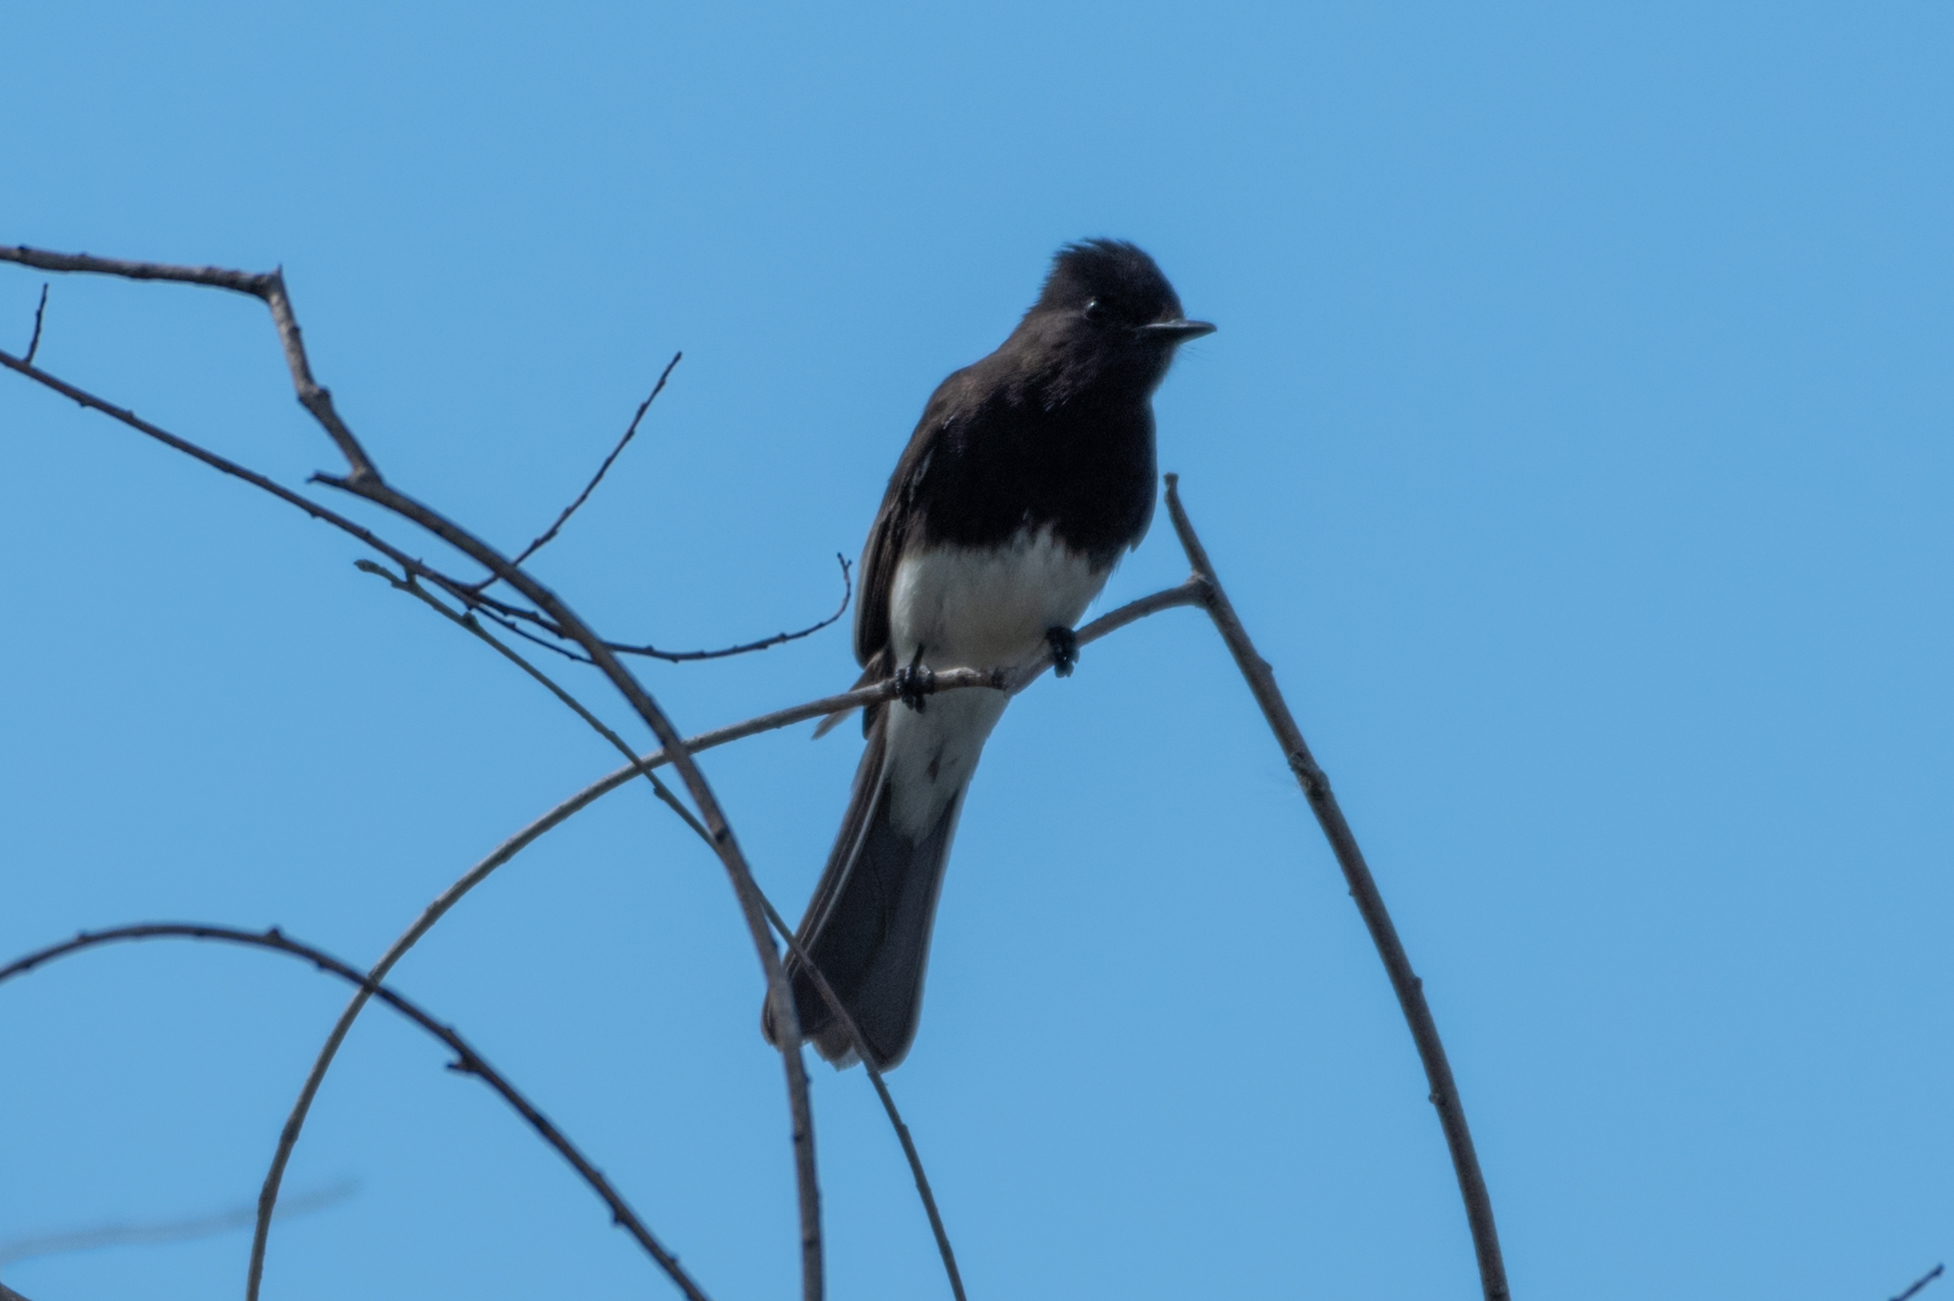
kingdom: Animalia
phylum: Chordata
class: Aves
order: Passeriformes
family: Tyrannidae
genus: Sayornis
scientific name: Sayornis nigricans
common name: Black phoebe
